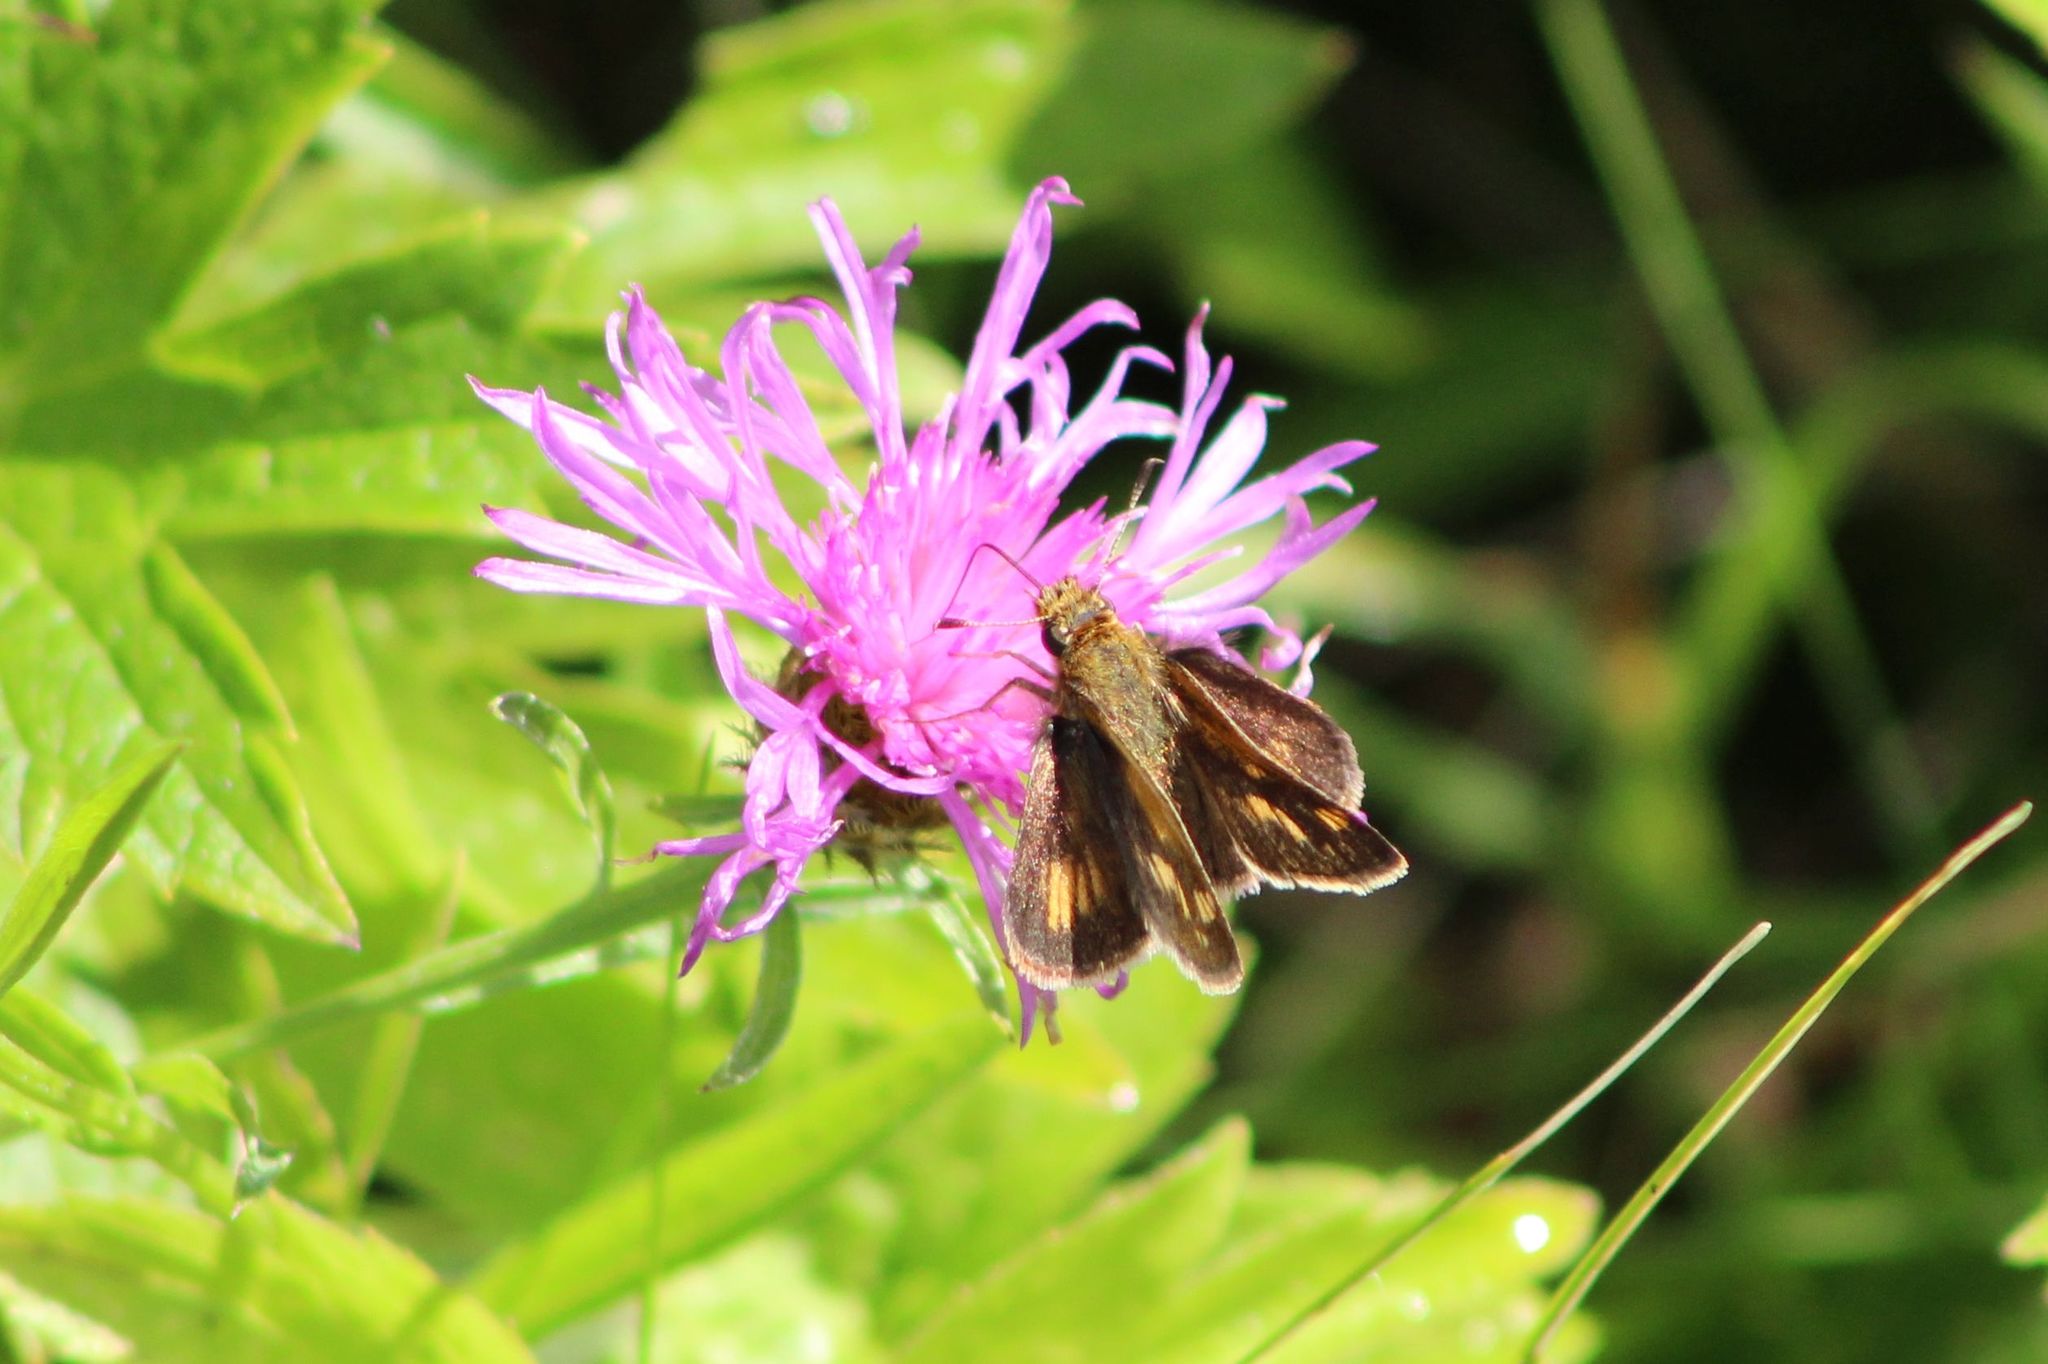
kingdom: Animalia
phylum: Arthropoda
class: Insecta
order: Lepidoptera
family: Hesperiidae
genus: Polites
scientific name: Polites coras
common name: Peck's skipper
